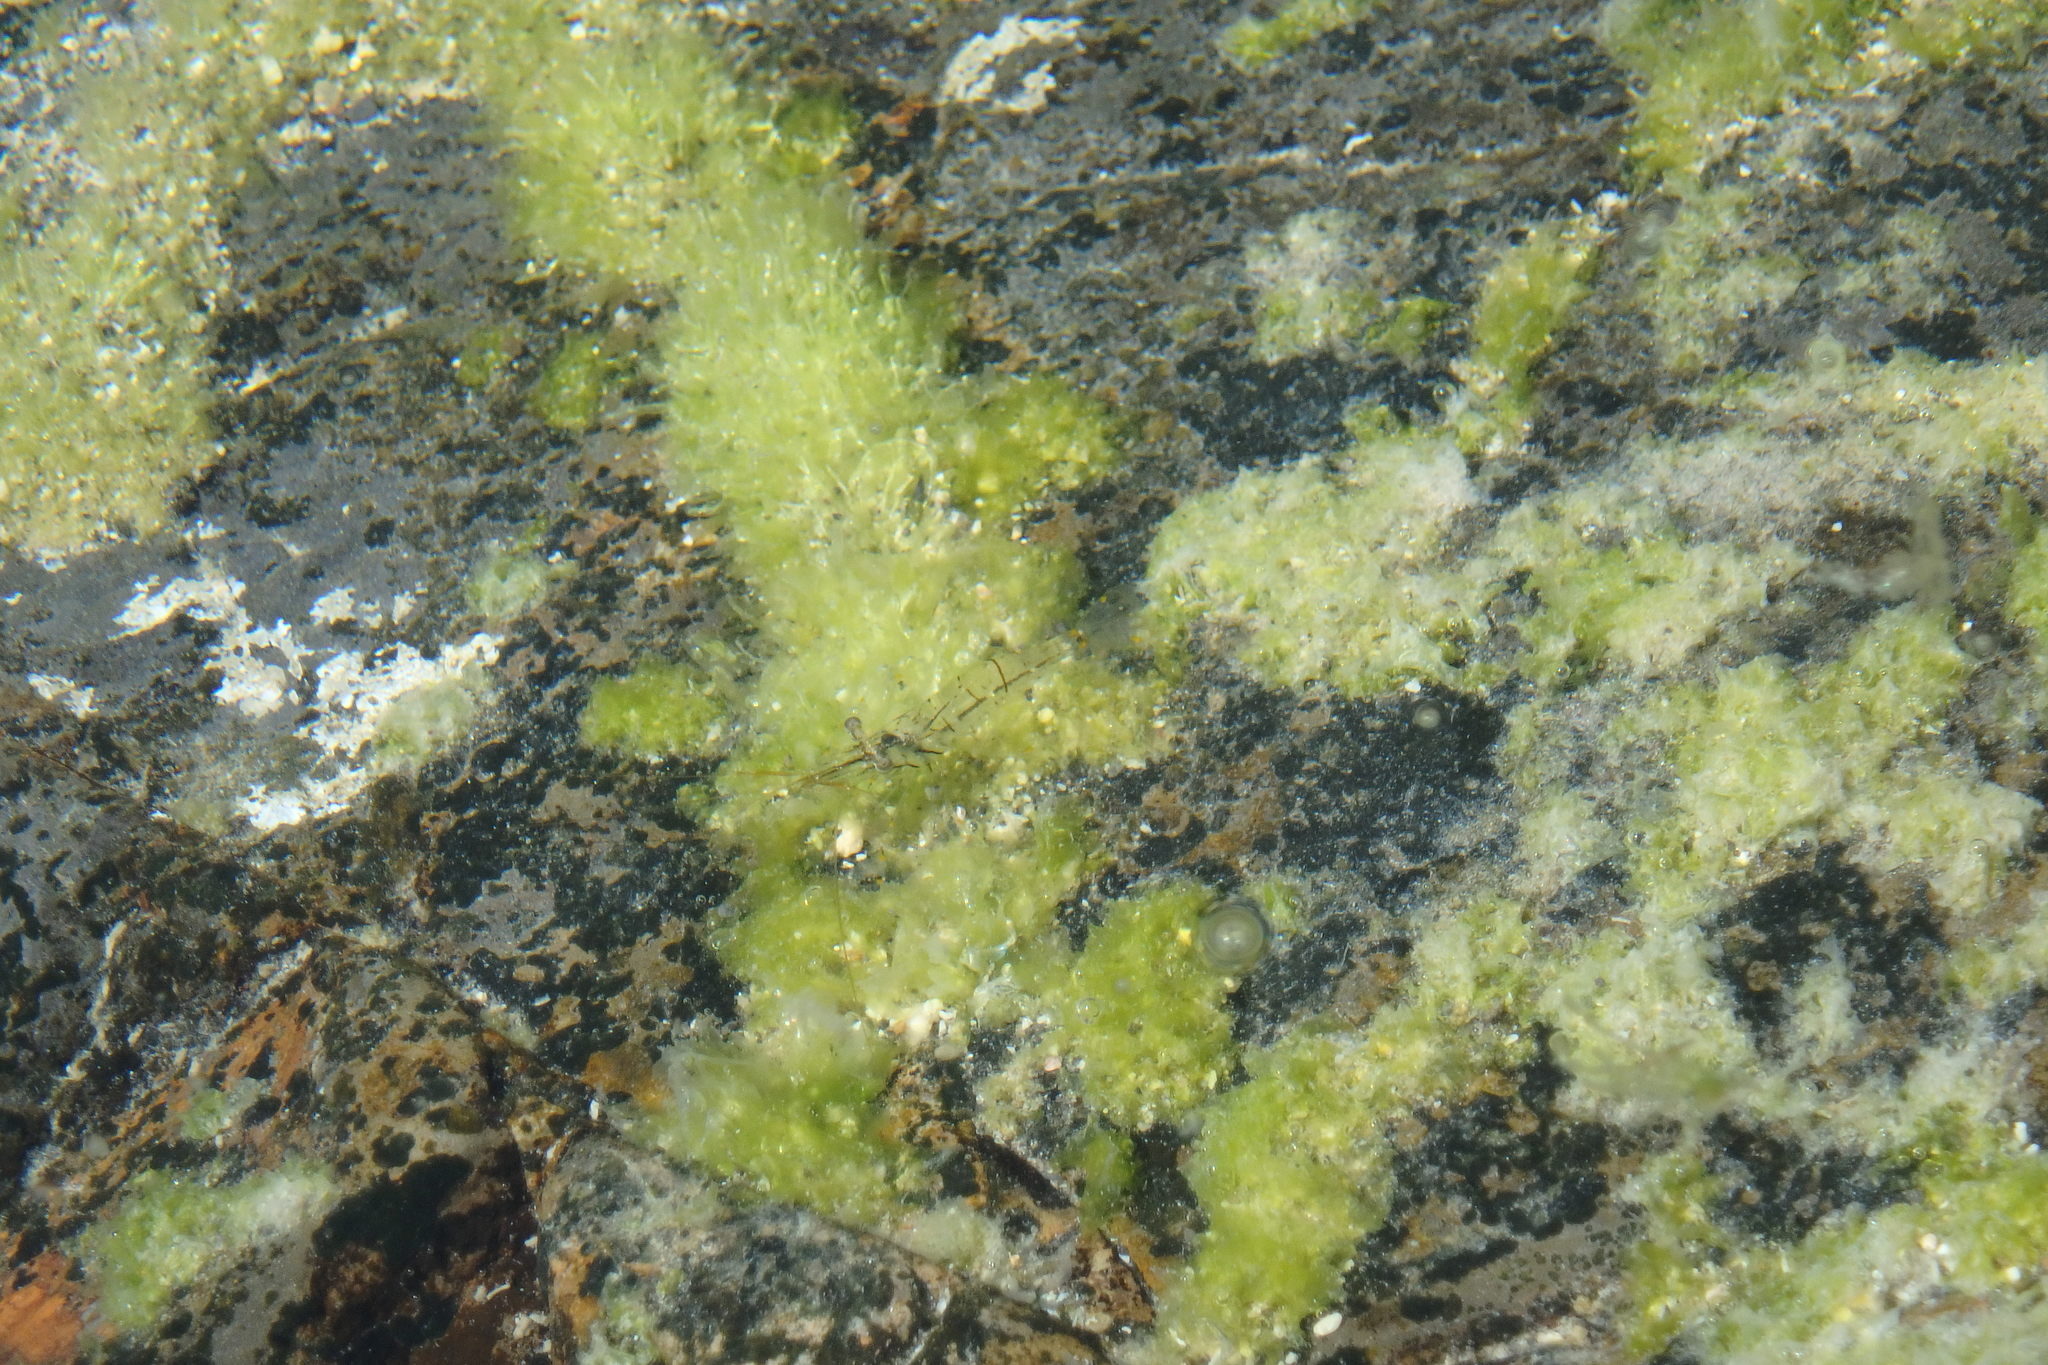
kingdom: Animalia
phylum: Arthropoda
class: Malacostraca
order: Decapoda
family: Palaemonidae
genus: Palaemon
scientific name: Palaemon serrifer
